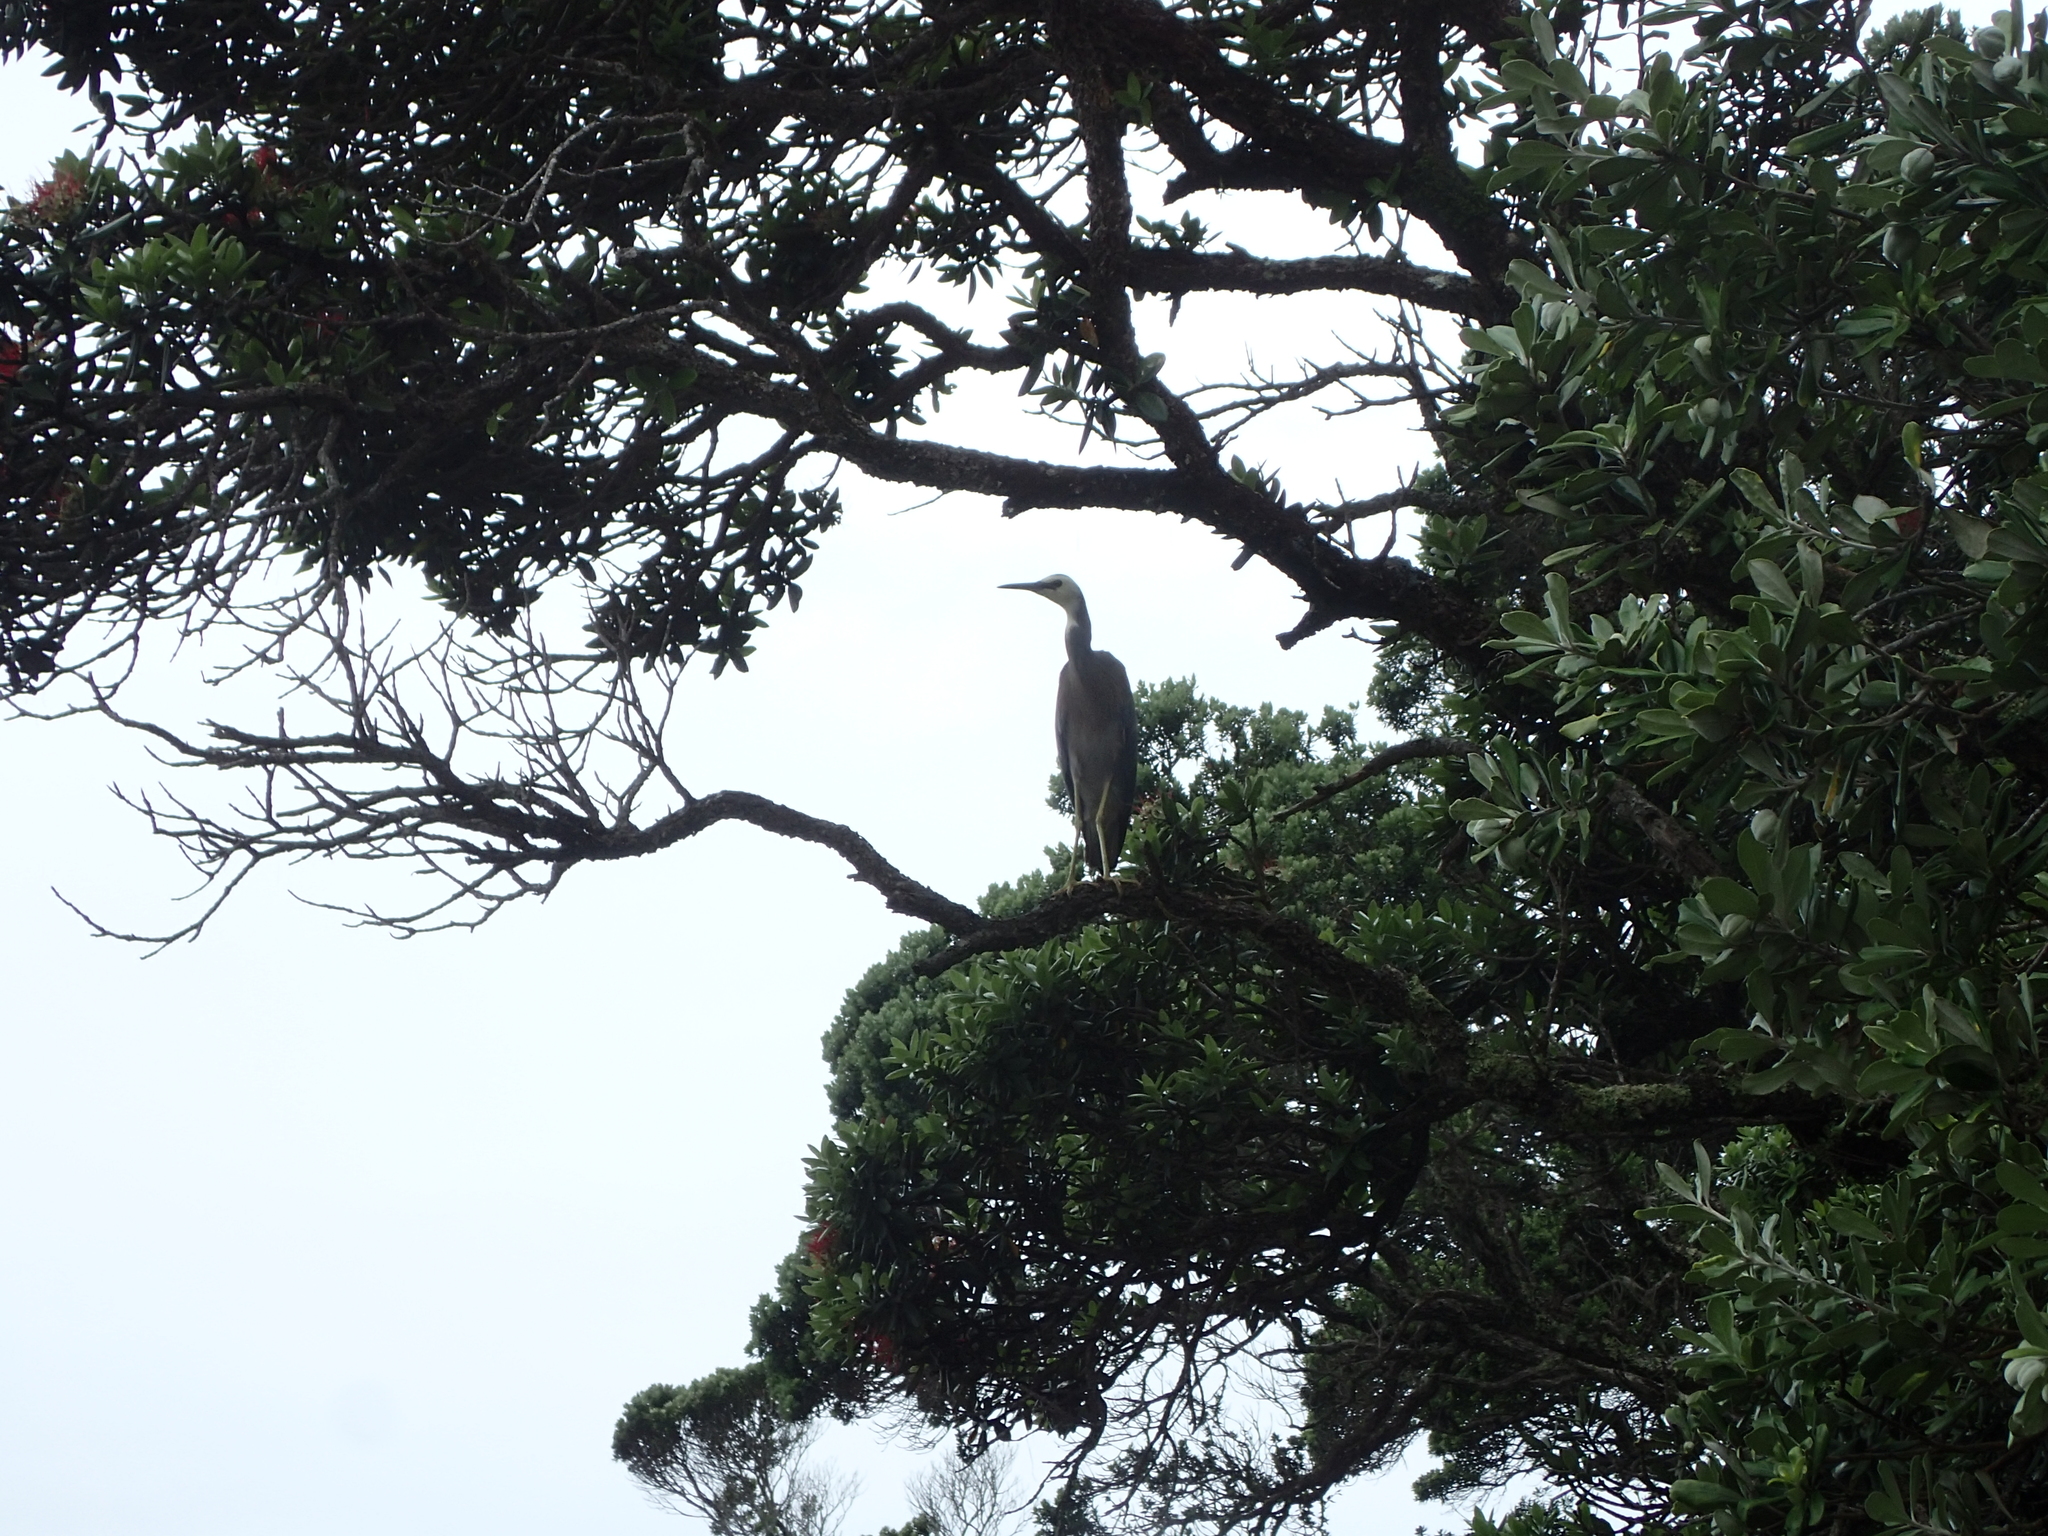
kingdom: Animalia
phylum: Chordata
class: Aves
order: Pelecaniformes
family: Ardeidae
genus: Egretta
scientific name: Egretta novaehollandiae
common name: White-faced heron
